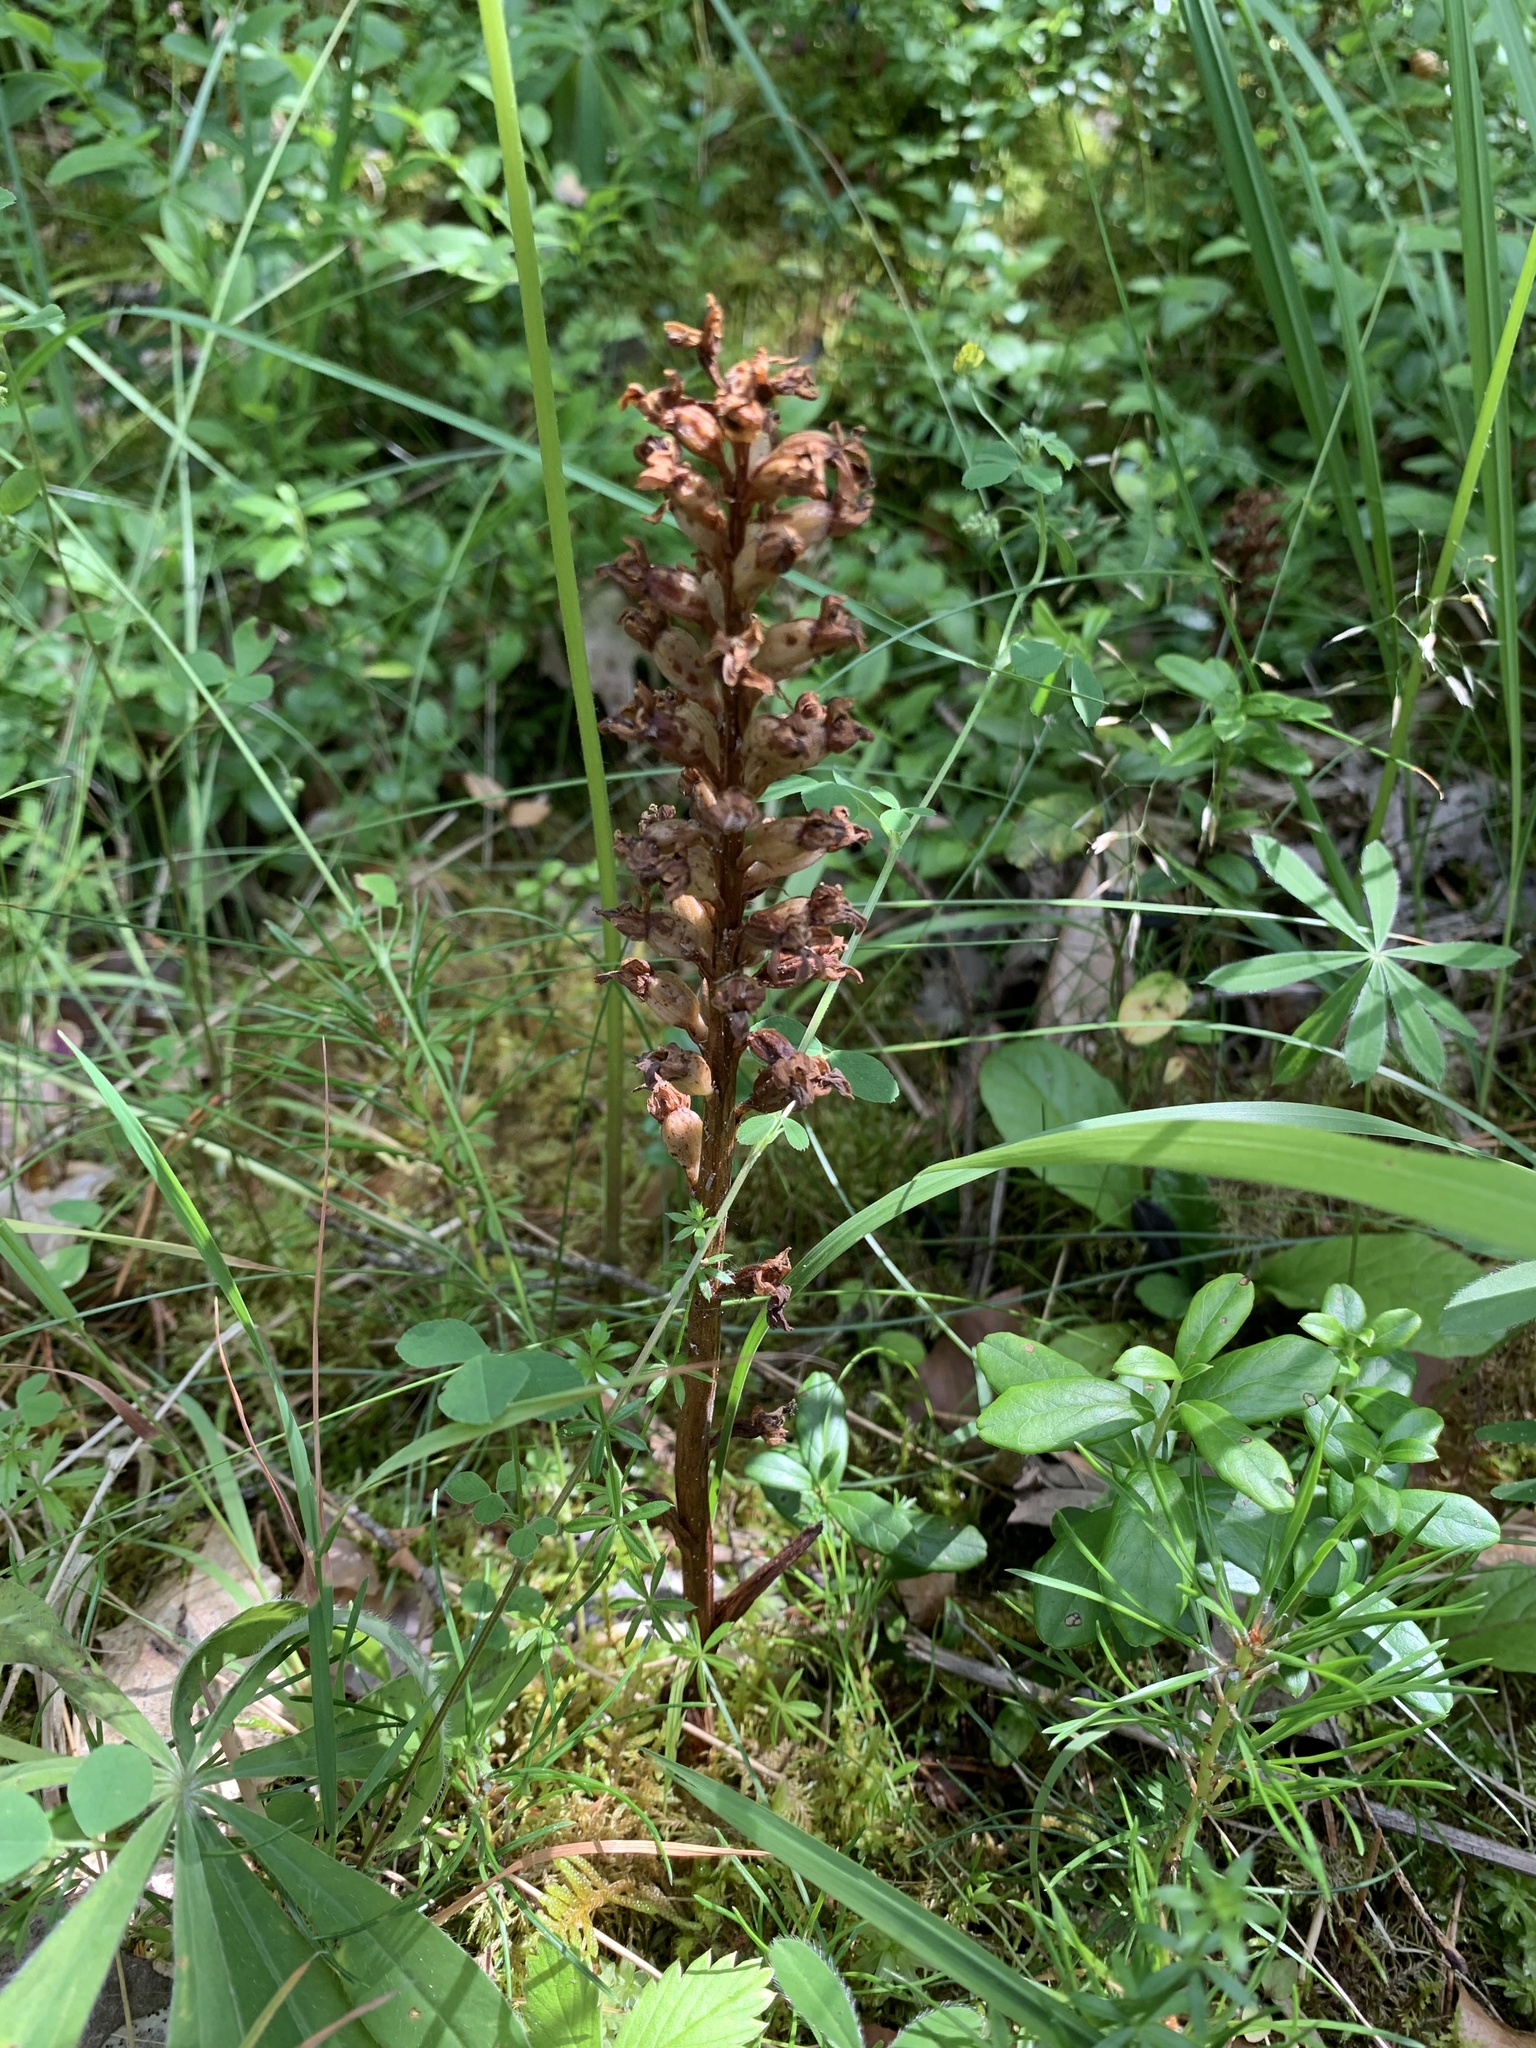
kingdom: Plantae
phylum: Tracheophyta
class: Liliopsida
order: Asparagales
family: Orchidaceae
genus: Neottia
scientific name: Neottia nidus-avis
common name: Bird's-nest orchid
